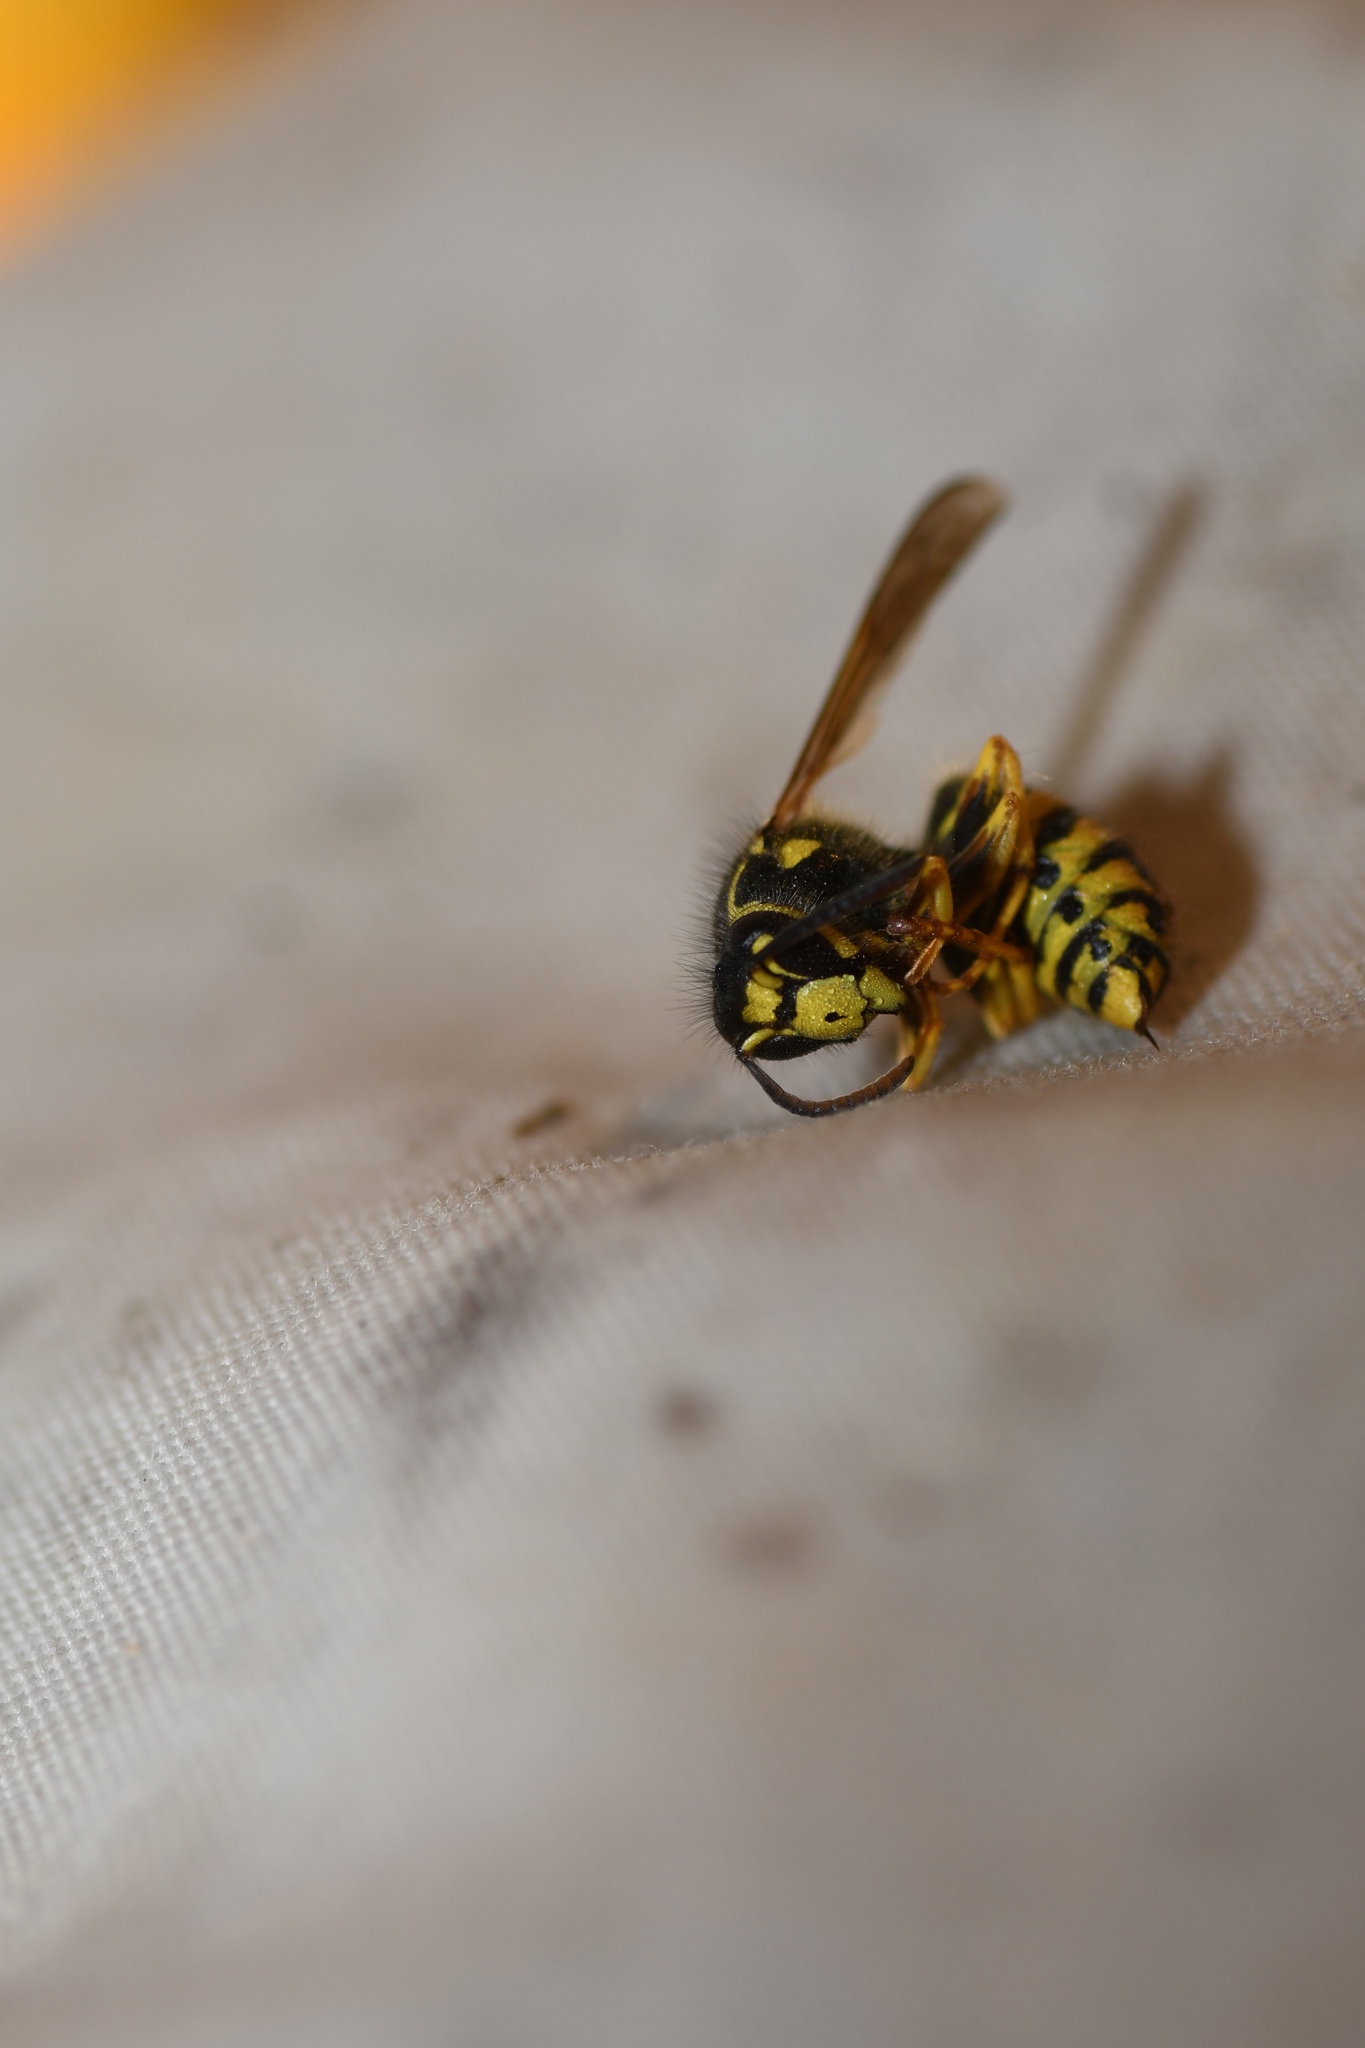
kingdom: Animalia
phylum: Arthropoda
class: Insecta
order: Hymenoptera
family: Vespidae
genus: Dolichovespula
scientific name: Dolichovespula arenaria
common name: Aerial yellowjacket
